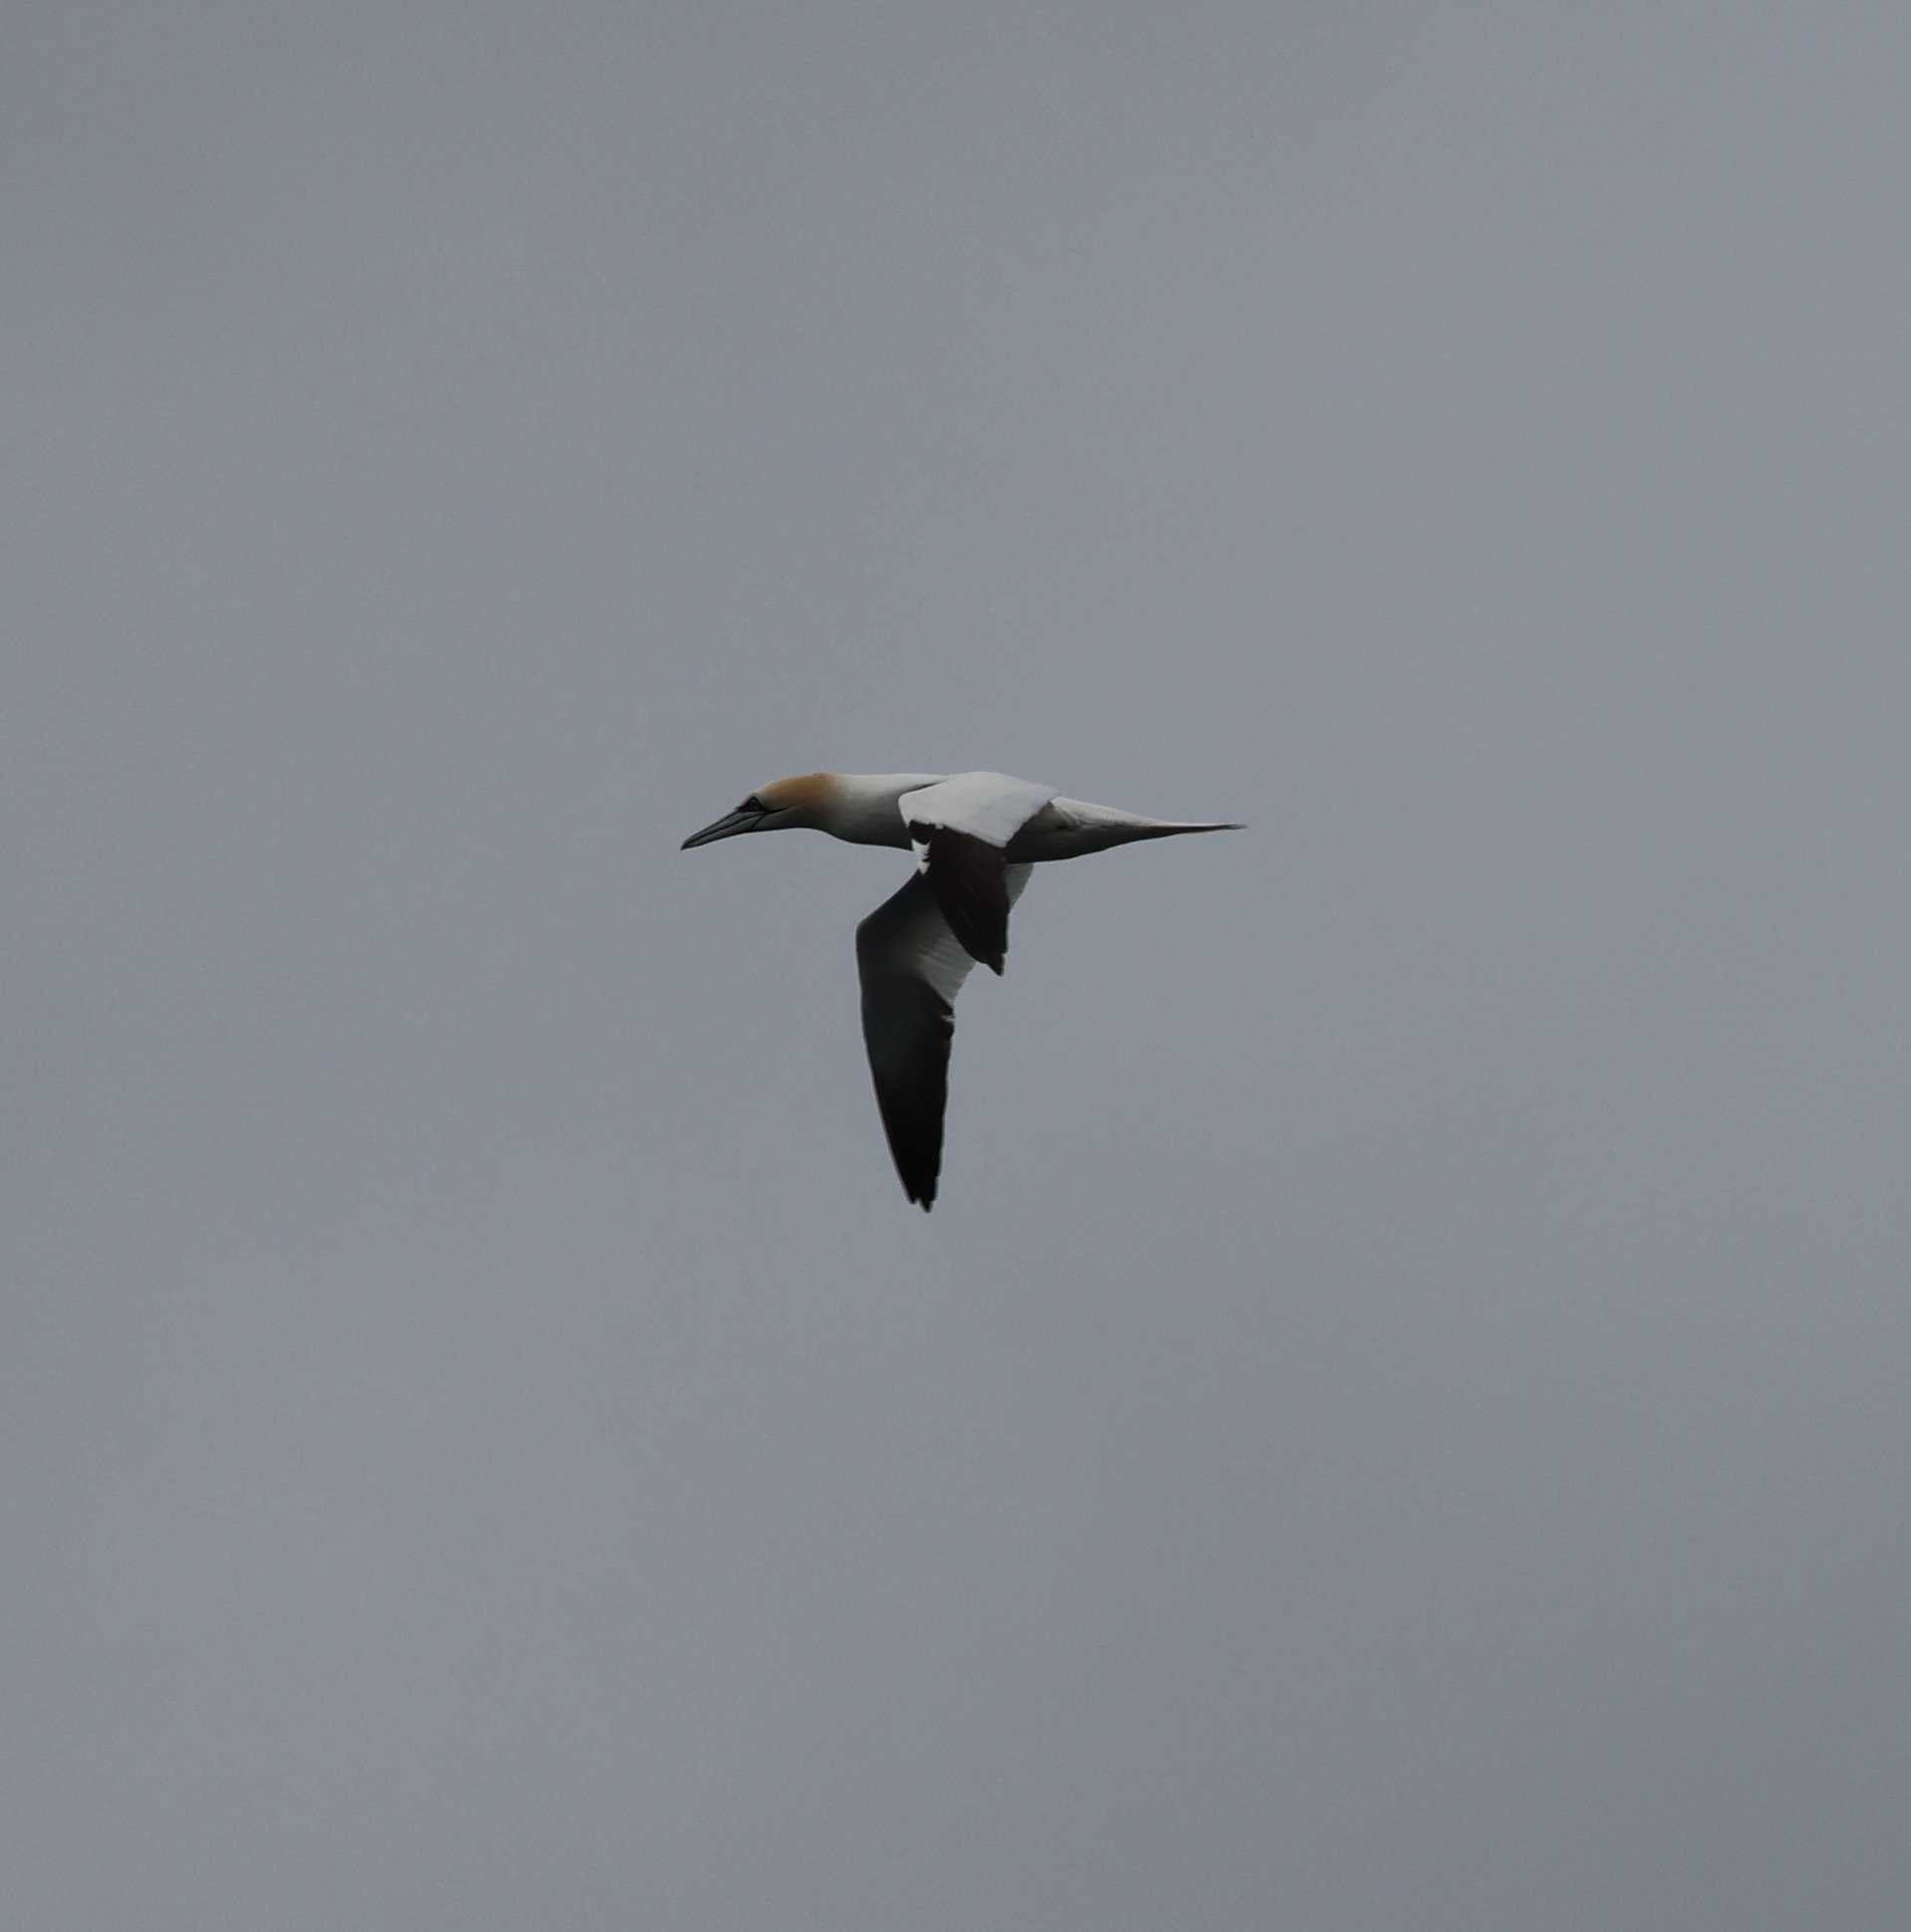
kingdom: Animalia
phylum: Chordata
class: Aves
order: Suliformes
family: Sulidae
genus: Morus
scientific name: Morus bassanus
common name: Northern gannet
